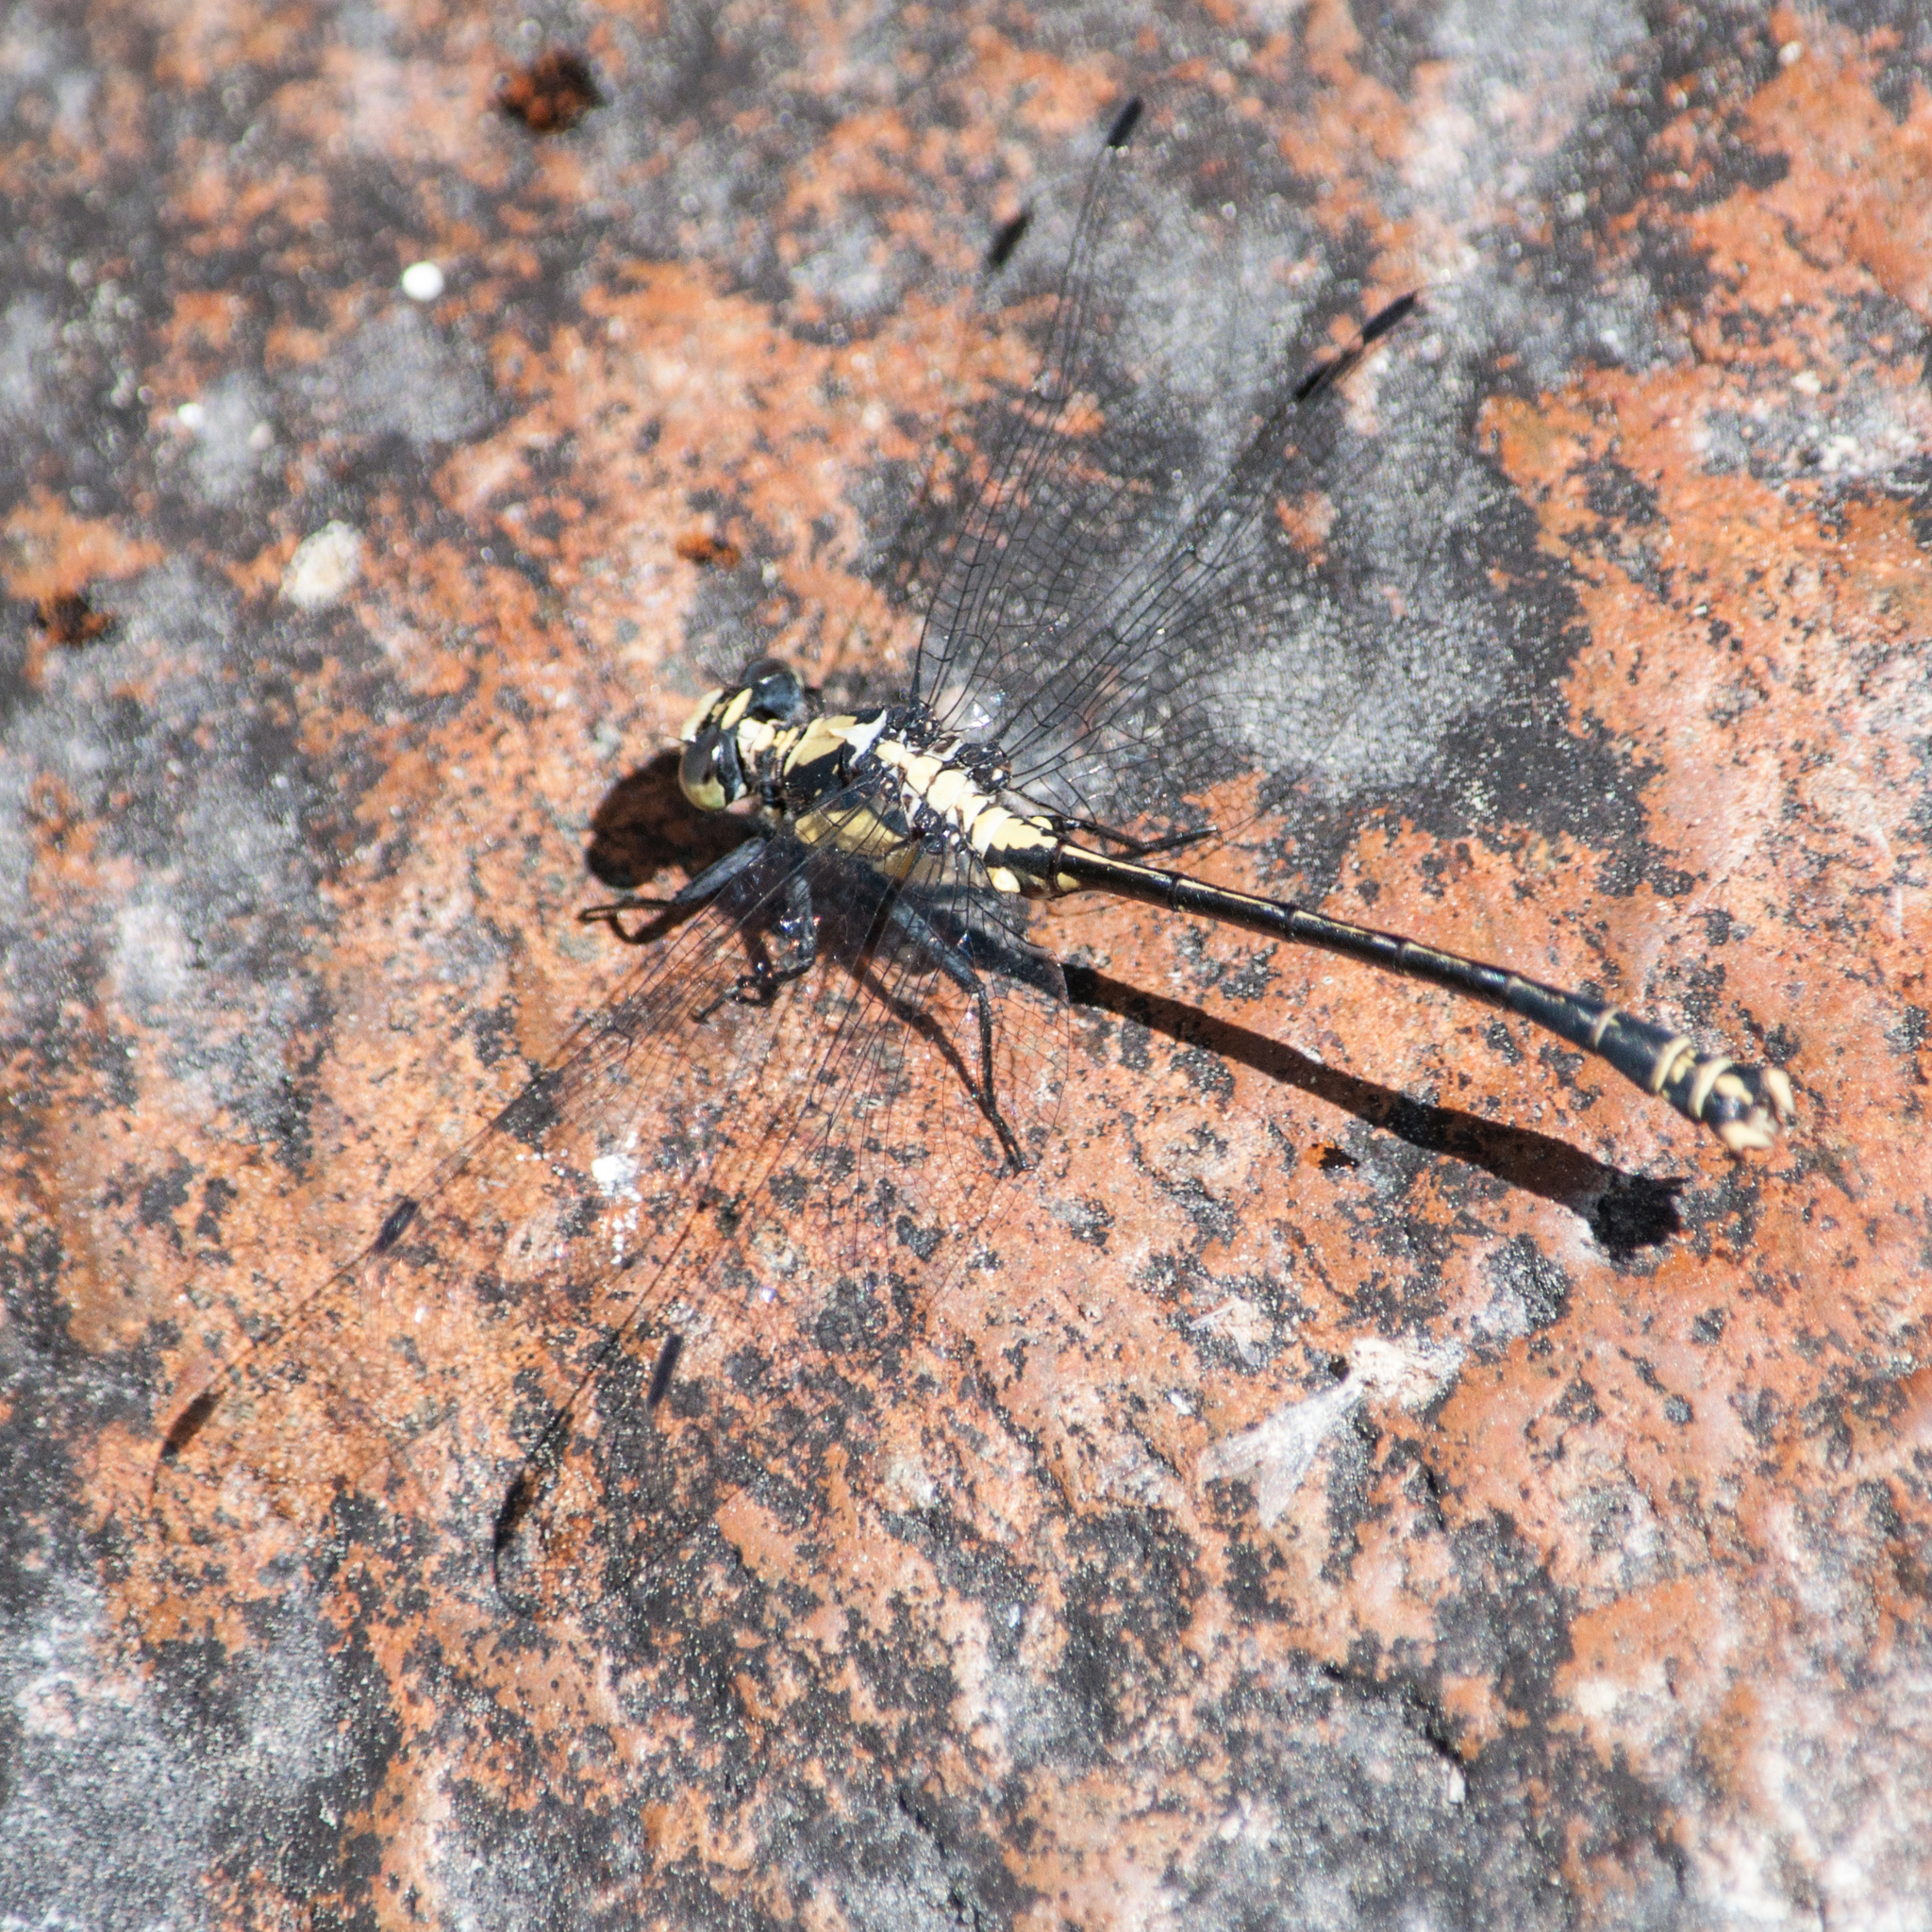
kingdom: Animalia
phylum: Arthropoda
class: Insecta
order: Odonata
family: Gomphidae
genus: Octogomphus
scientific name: Octogomphus specularis
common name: Grappletail
